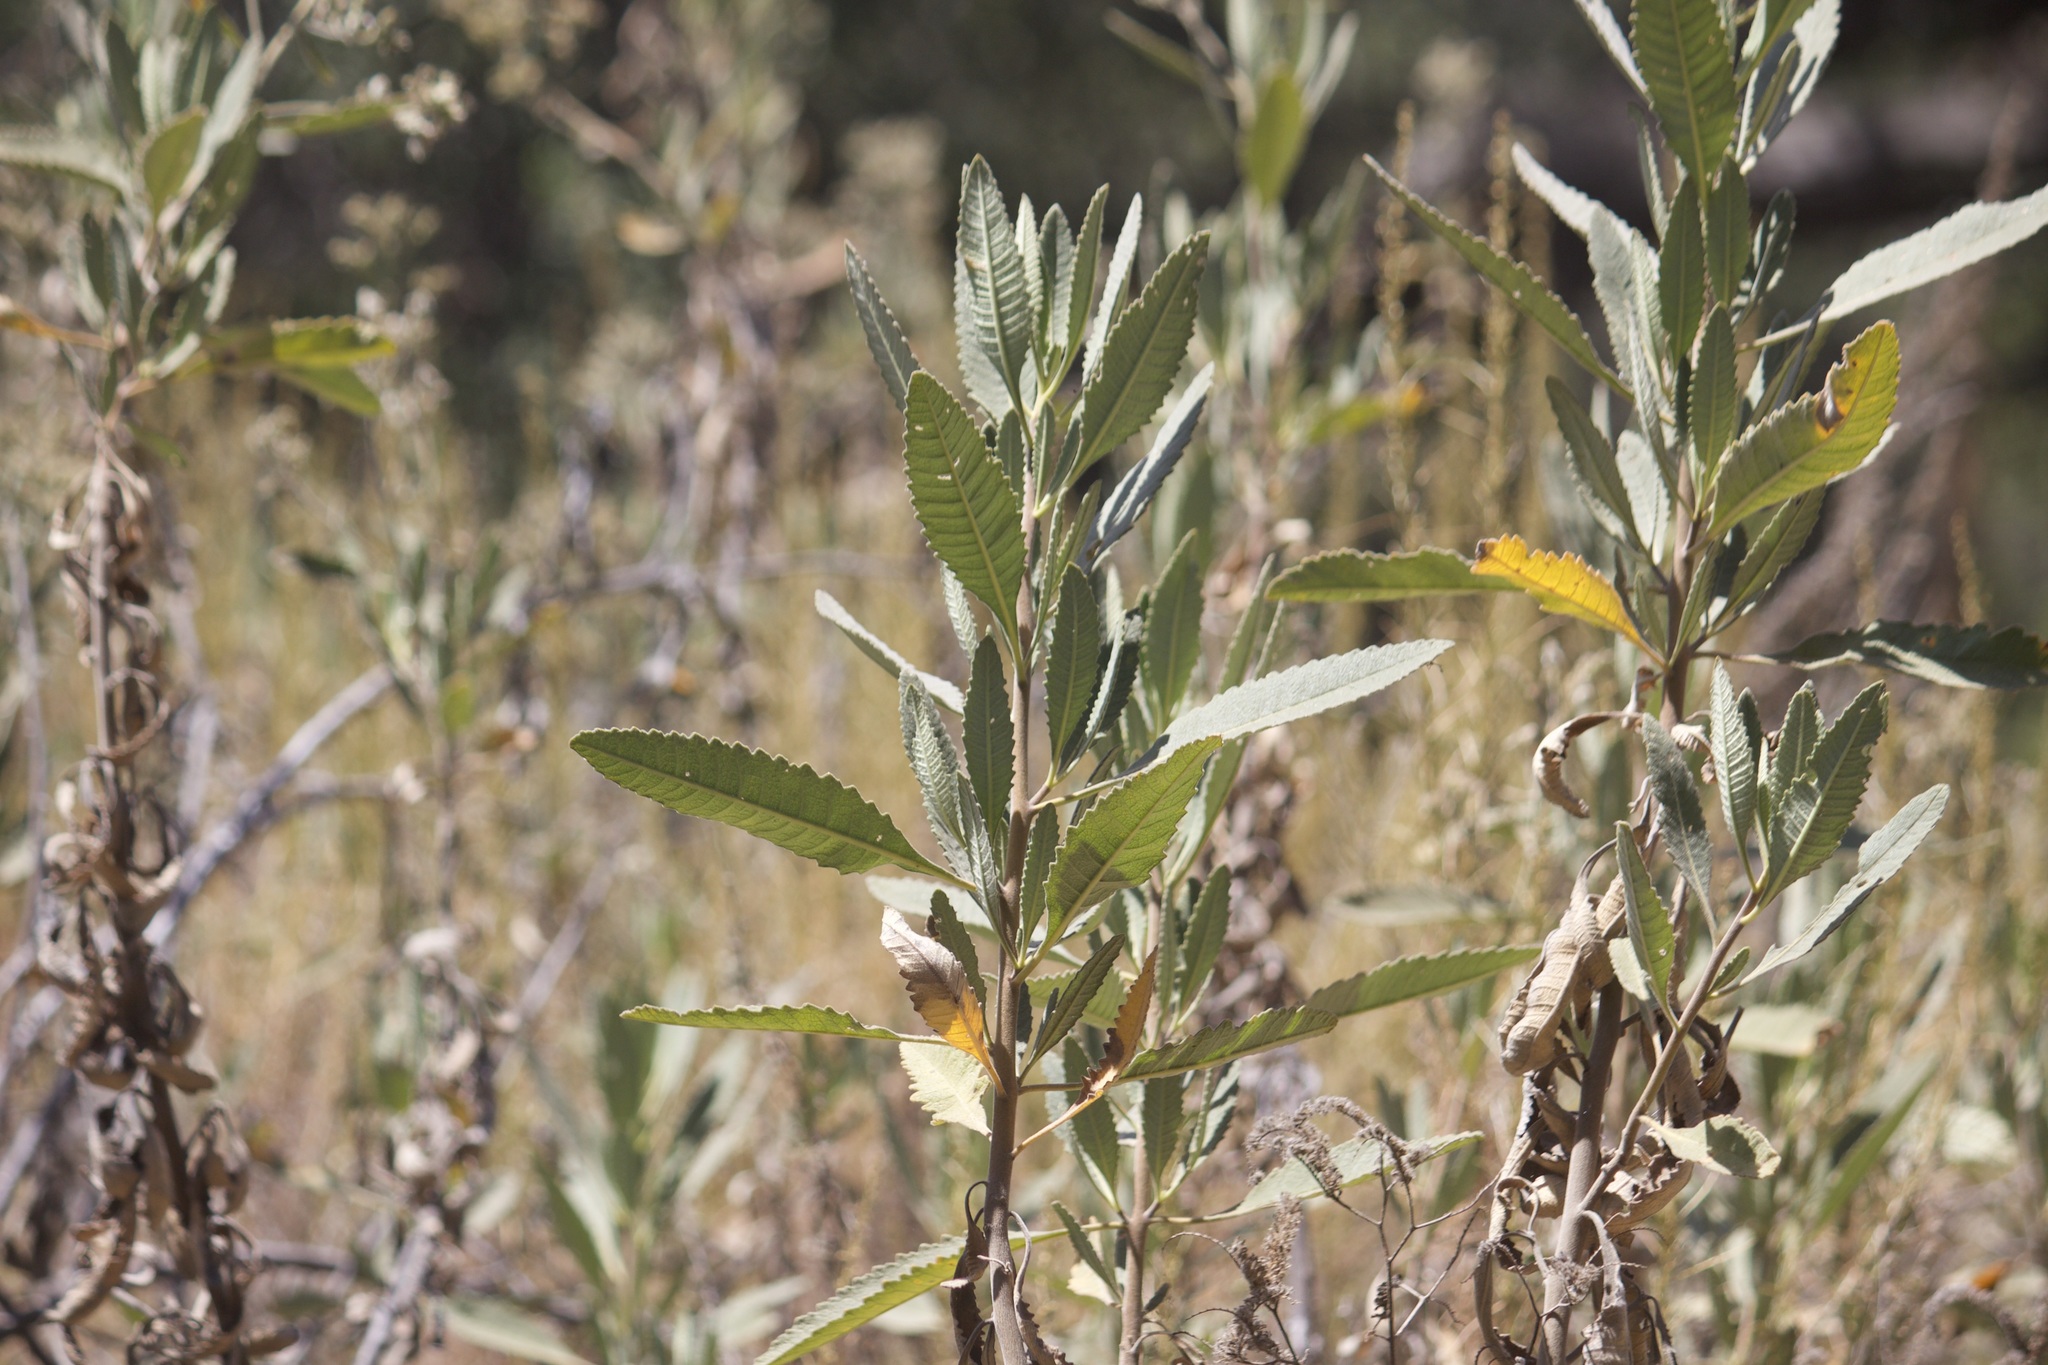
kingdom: Plantae
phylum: Tracheophyta
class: Magnoliopsida
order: Boraginales
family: Namaceae
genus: Eriodictyon
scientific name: Eriodictyon crassifolium
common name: Thick-leaf yerba-santa
